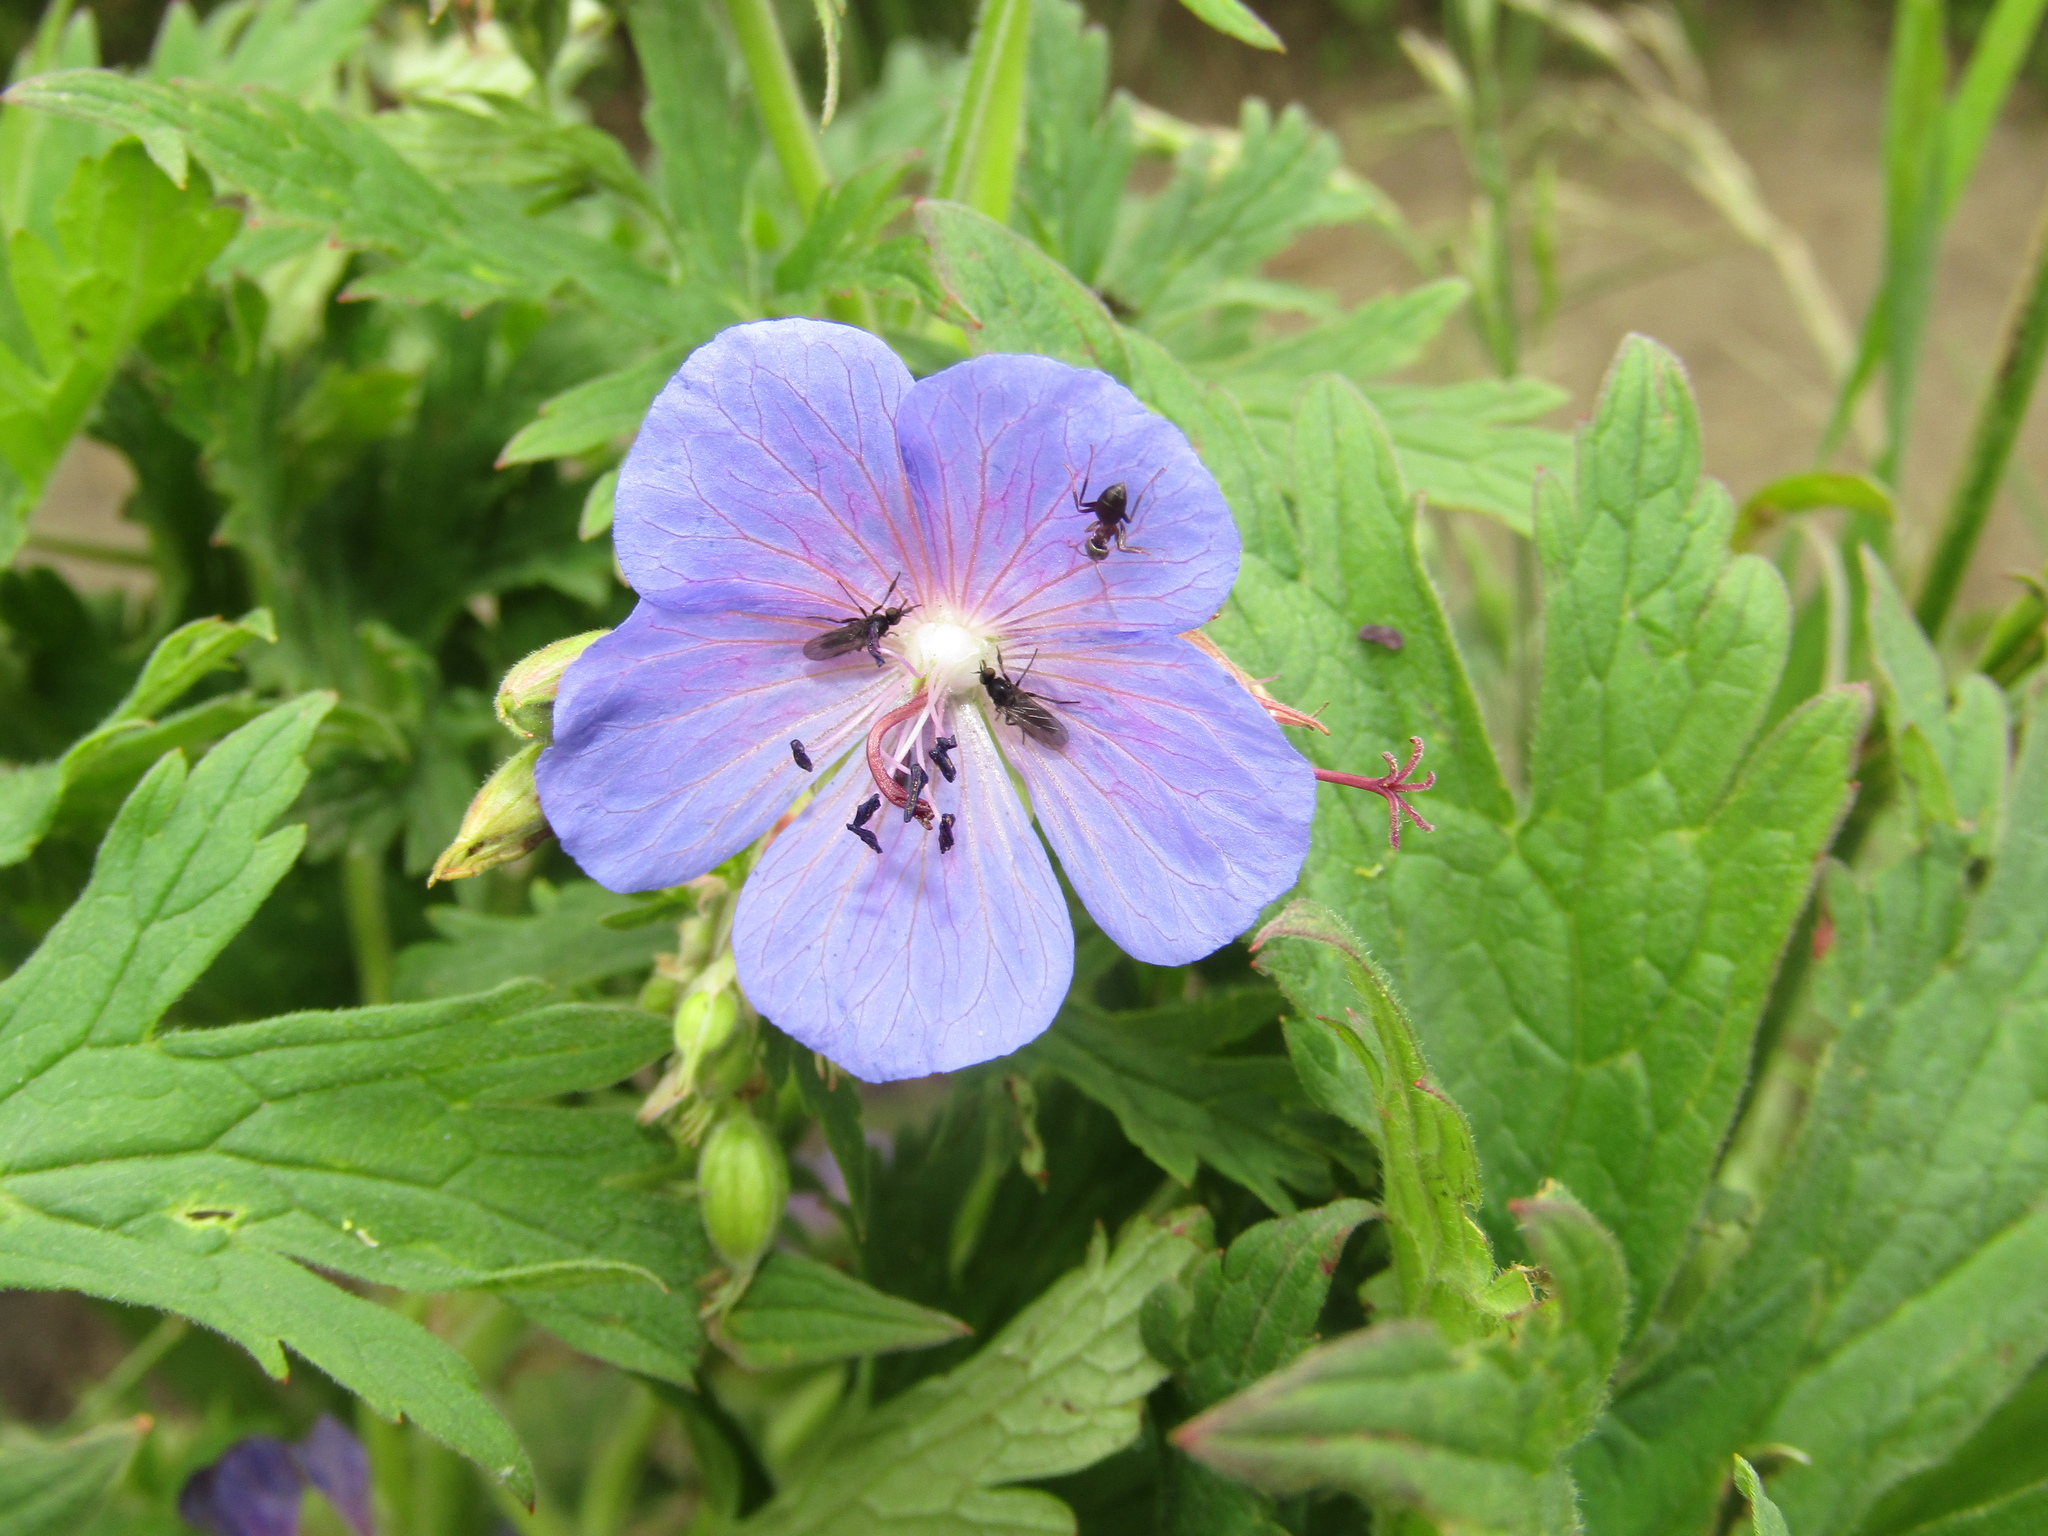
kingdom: Plantae
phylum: Tracheophyta
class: Magnoliopsida
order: Geraniales
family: Geraniaceae
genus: Geranium
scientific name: Geranium pratense
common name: Meadow crane's-bill
